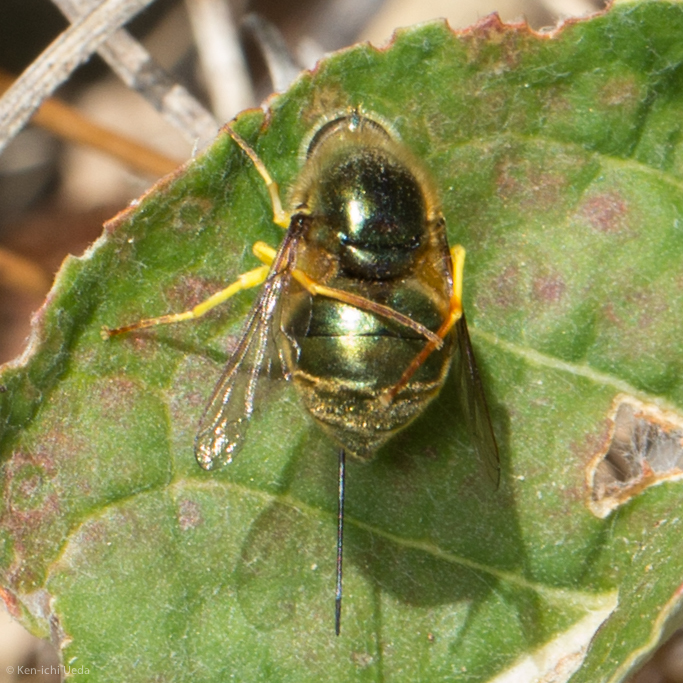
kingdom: Animalia
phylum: Arthropoda
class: Insecta
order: Diptera
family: Acroceridae
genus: Eulonchus
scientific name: Eulonchus smaragdinus
